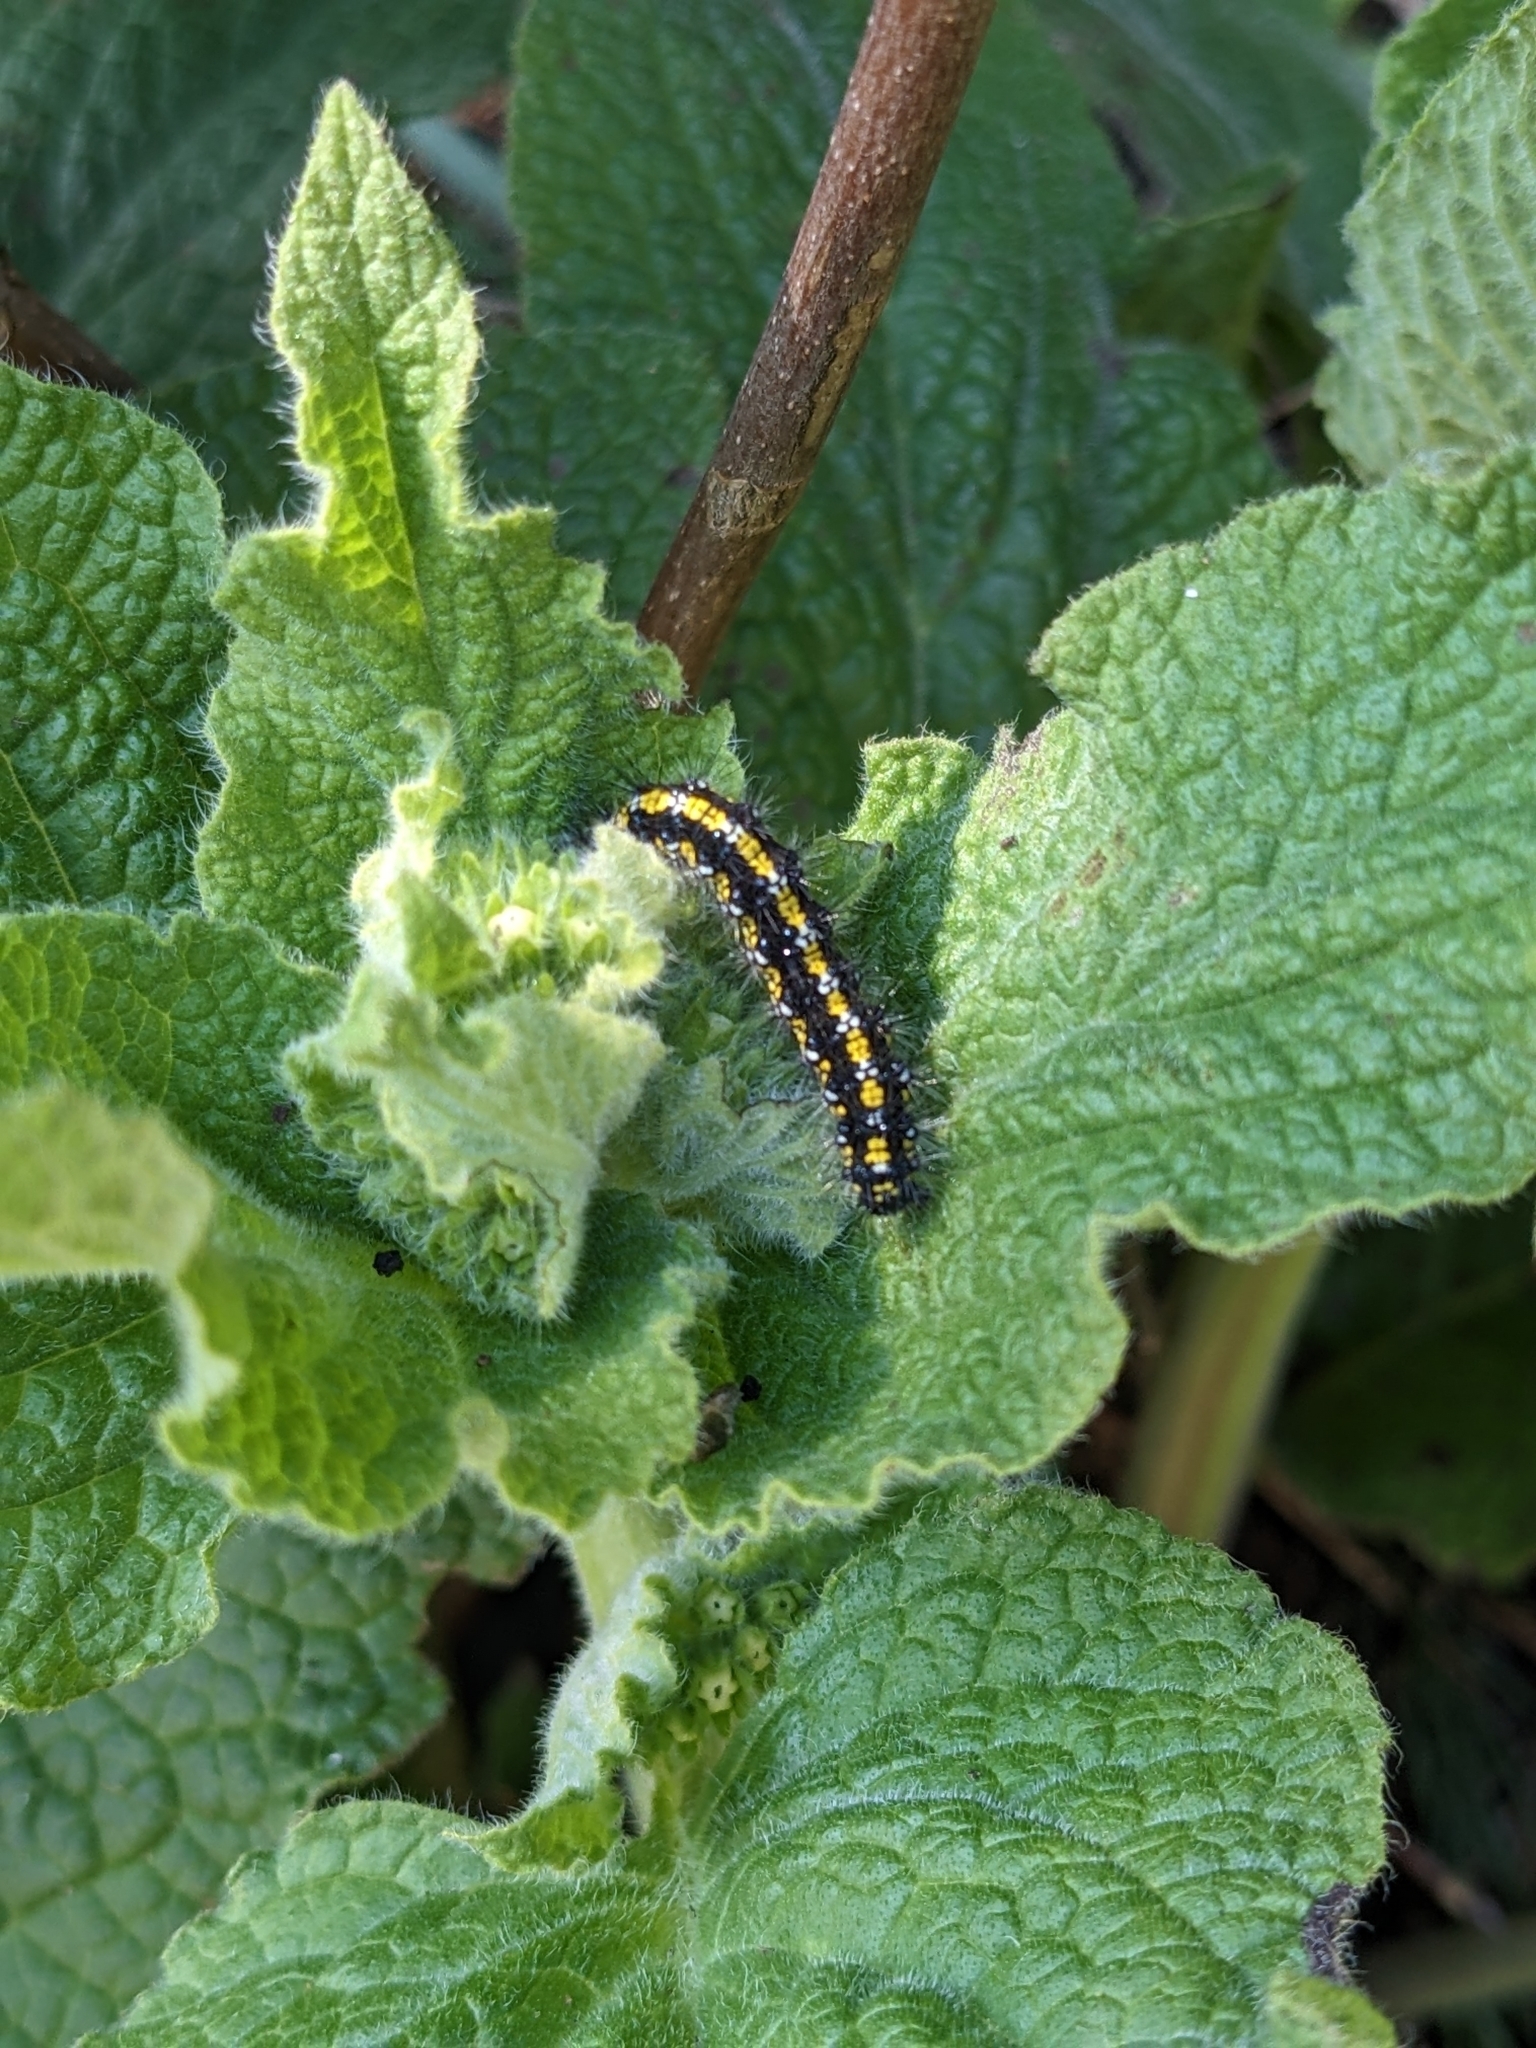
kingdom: Animalia
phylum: Arthropoda
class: Insecta
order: Lepidoptera
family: Erebidae
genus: Callimorpha
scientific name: Callimorpha dominula
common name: Scarlet tiger
